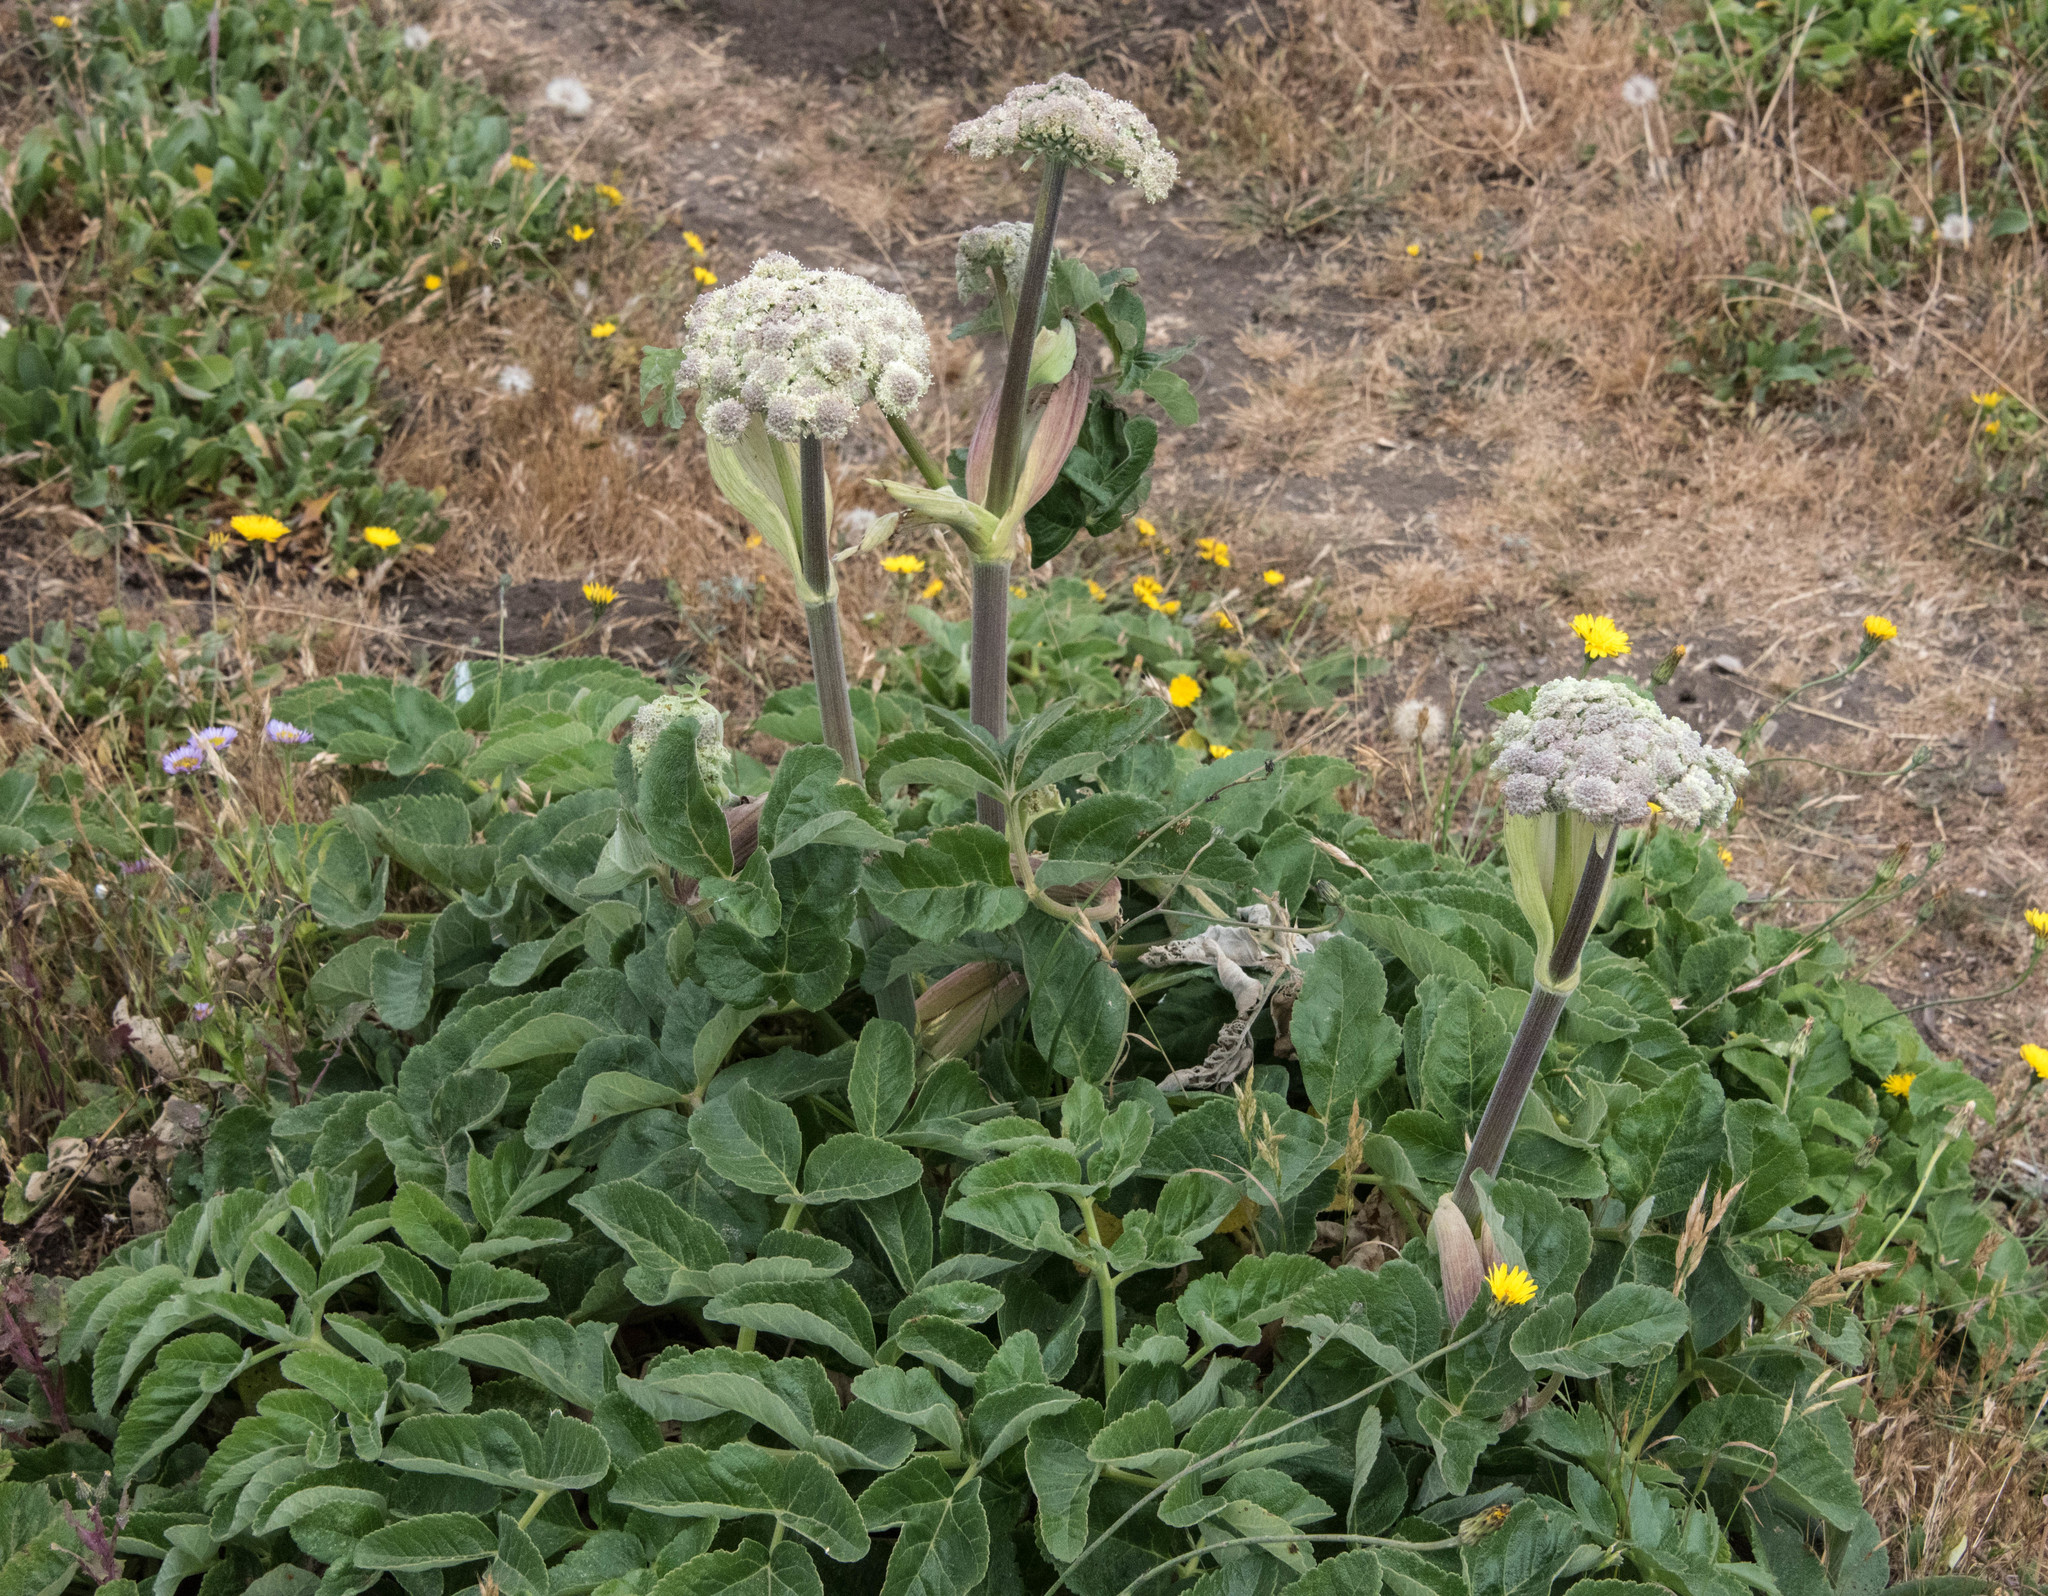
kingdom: Plantae
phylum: Tracheophyta
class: Magnoliopsida
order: Apiales
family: Apiaceae
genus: Angelica
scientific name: Angelica hendersonii
